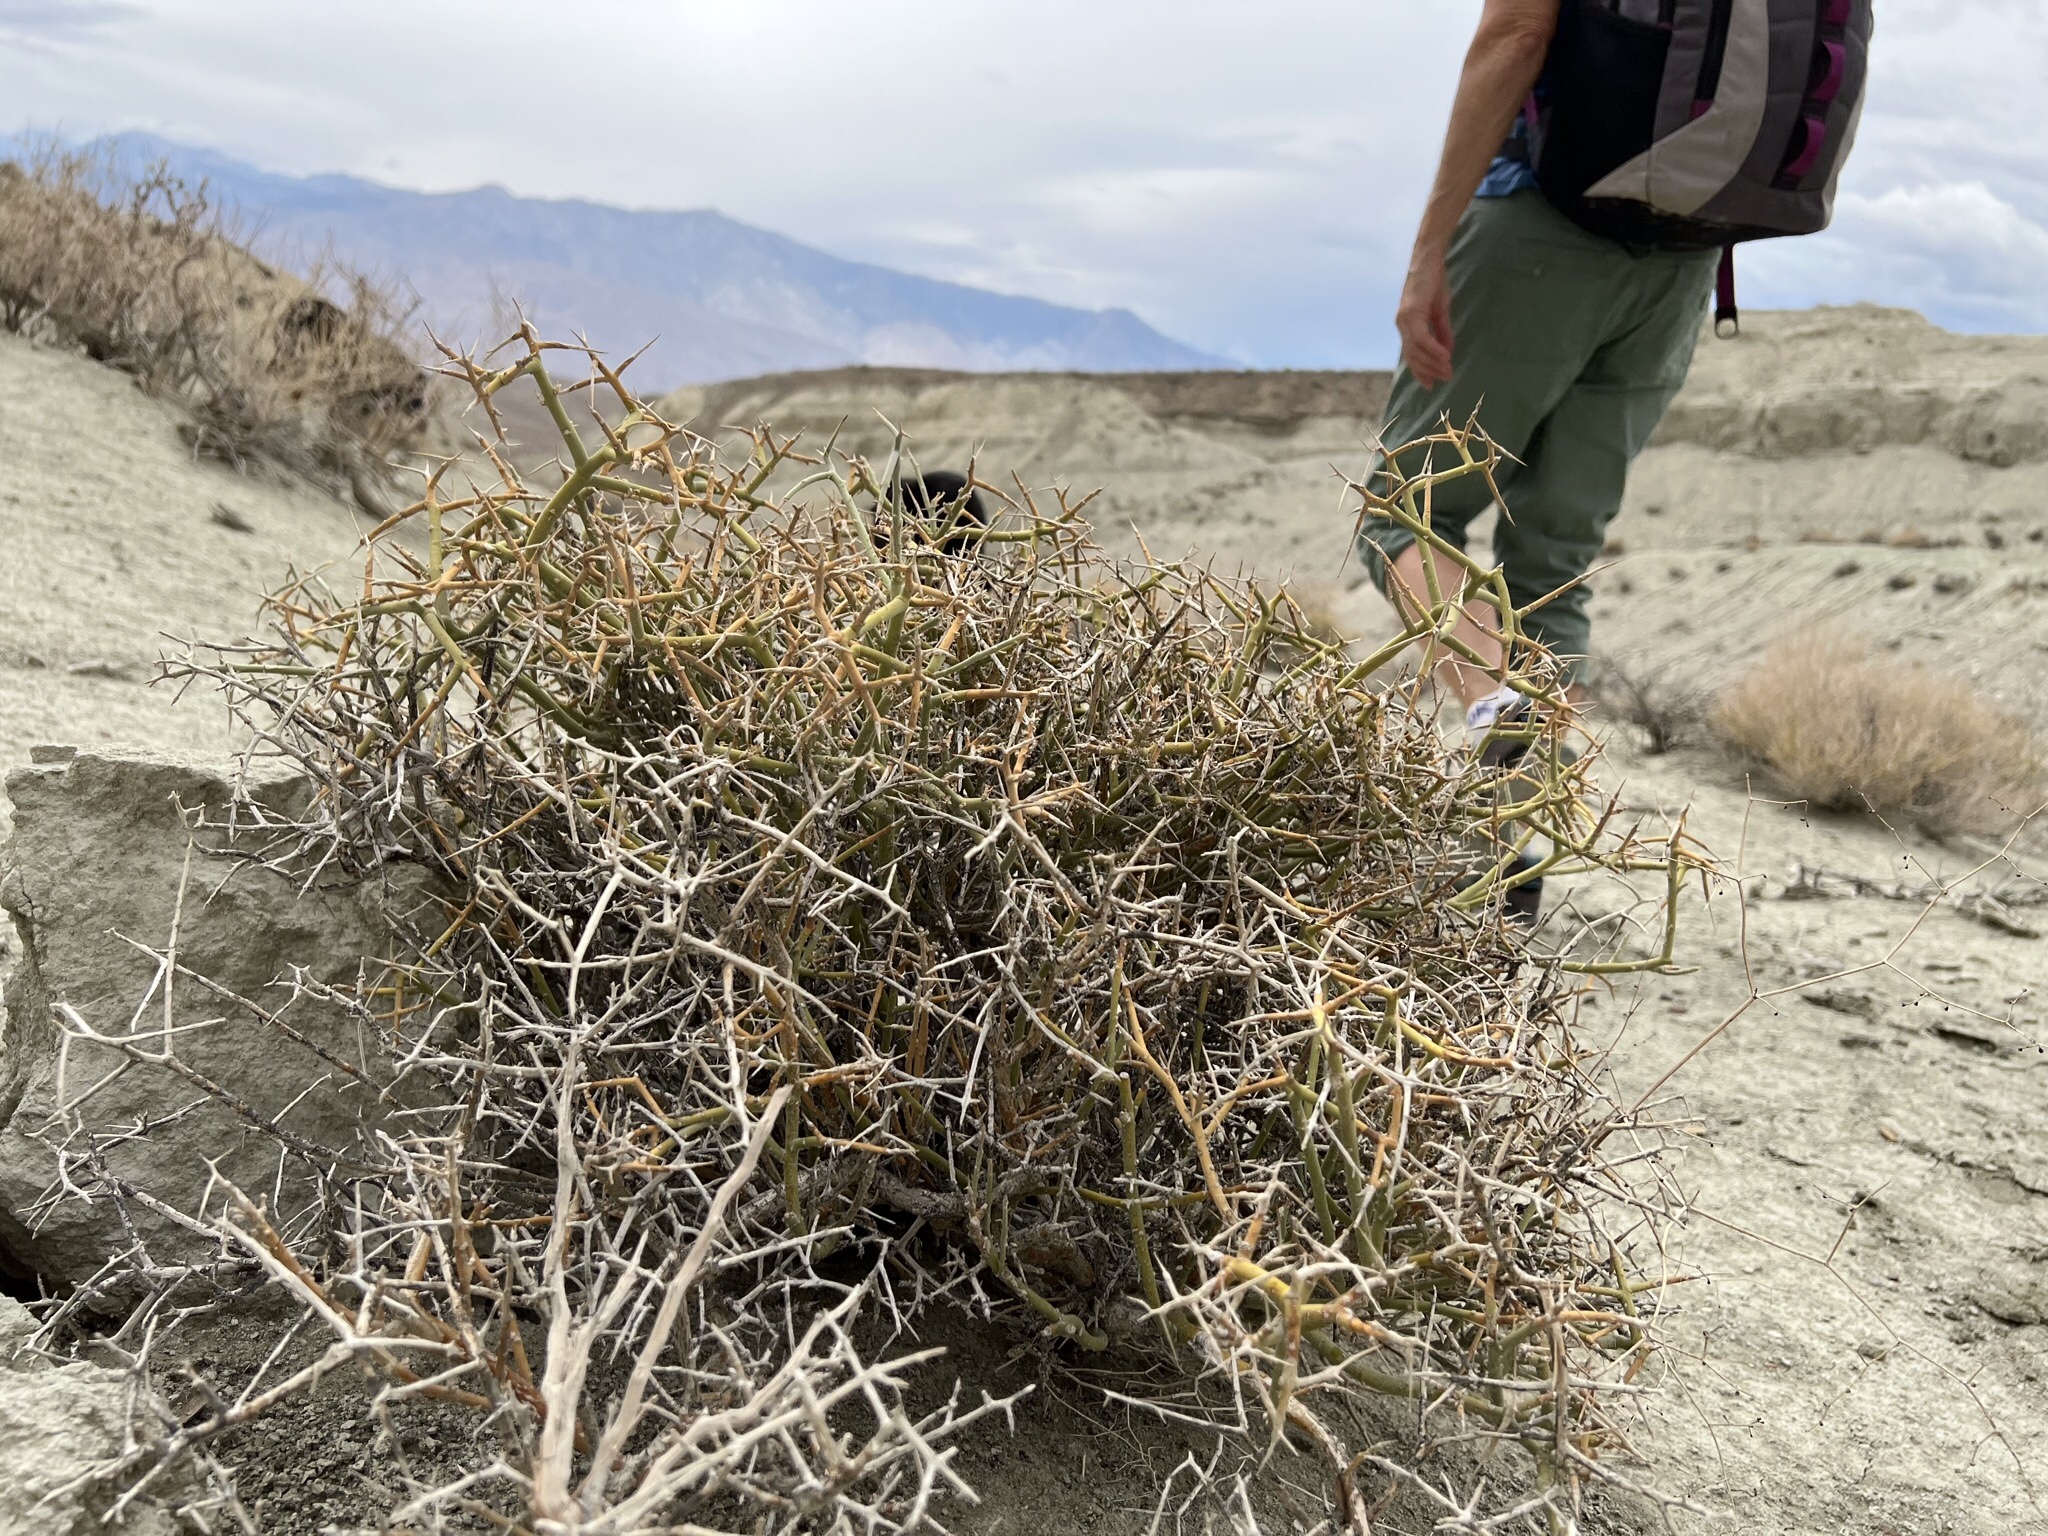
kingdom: Plantae
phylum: Tracheophyta
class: Magnoliopsida
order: Lamiales
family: Oleaceae
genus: Menodora
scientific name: Menodora spinescens
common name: Spiny menodora
